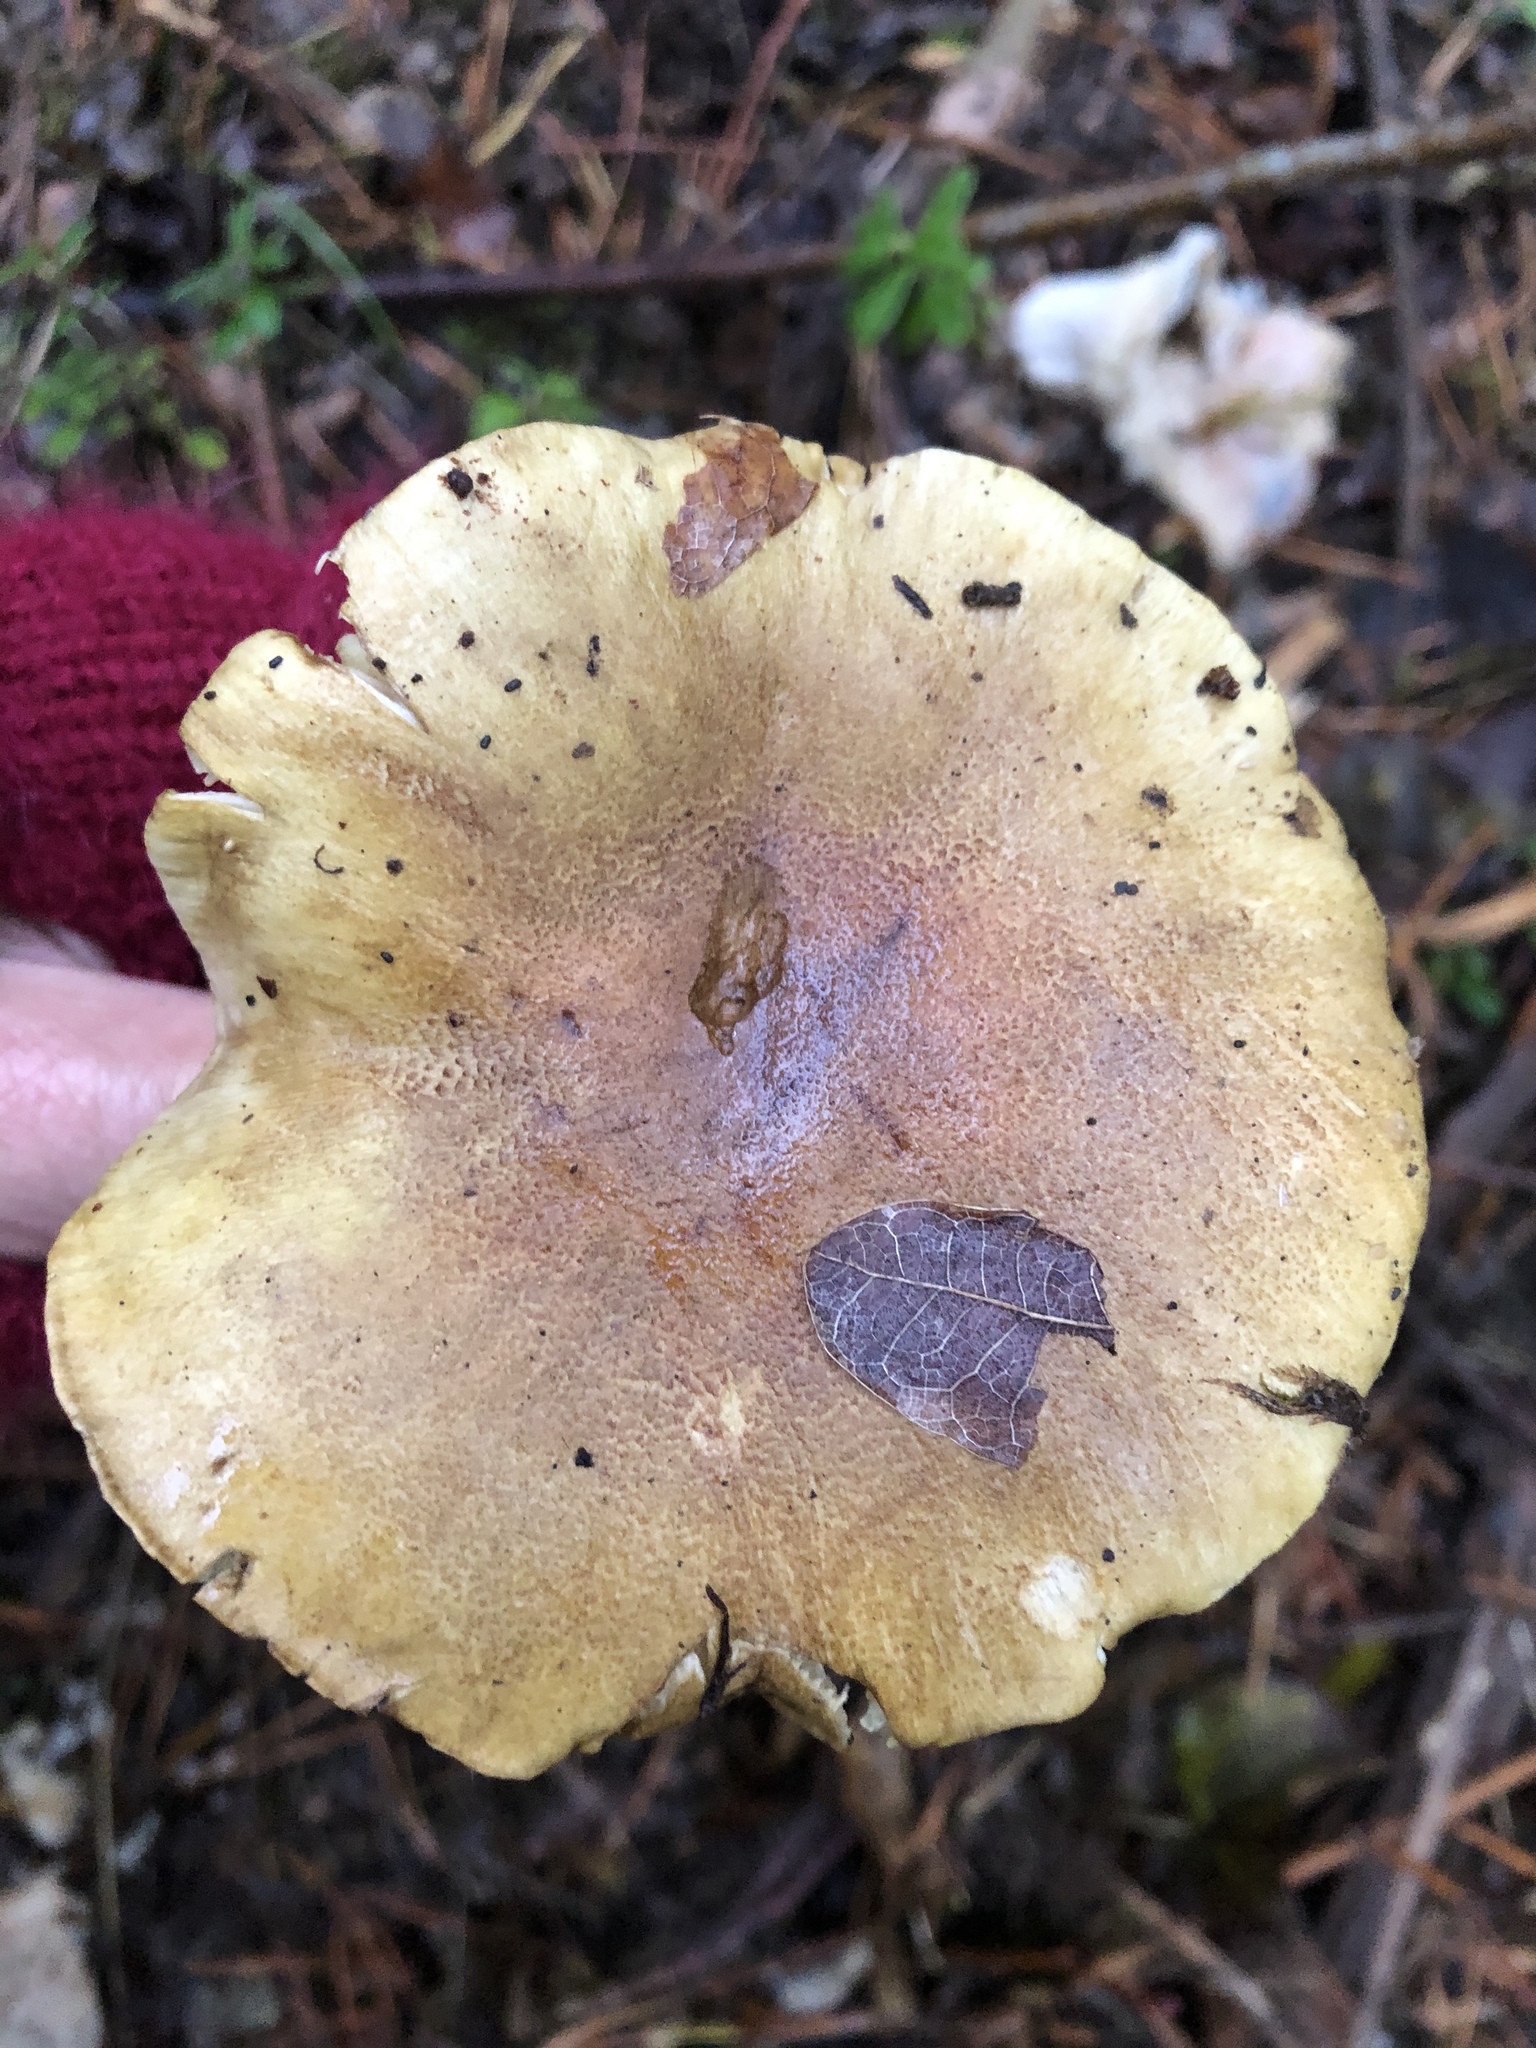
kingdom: Fungi
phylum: Basidiomycota
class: Agaricomycetes
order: Agaricales
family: Tricholomataceae
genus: Tricholoma
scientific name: Tricholoma equestre
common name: Yellow knight
